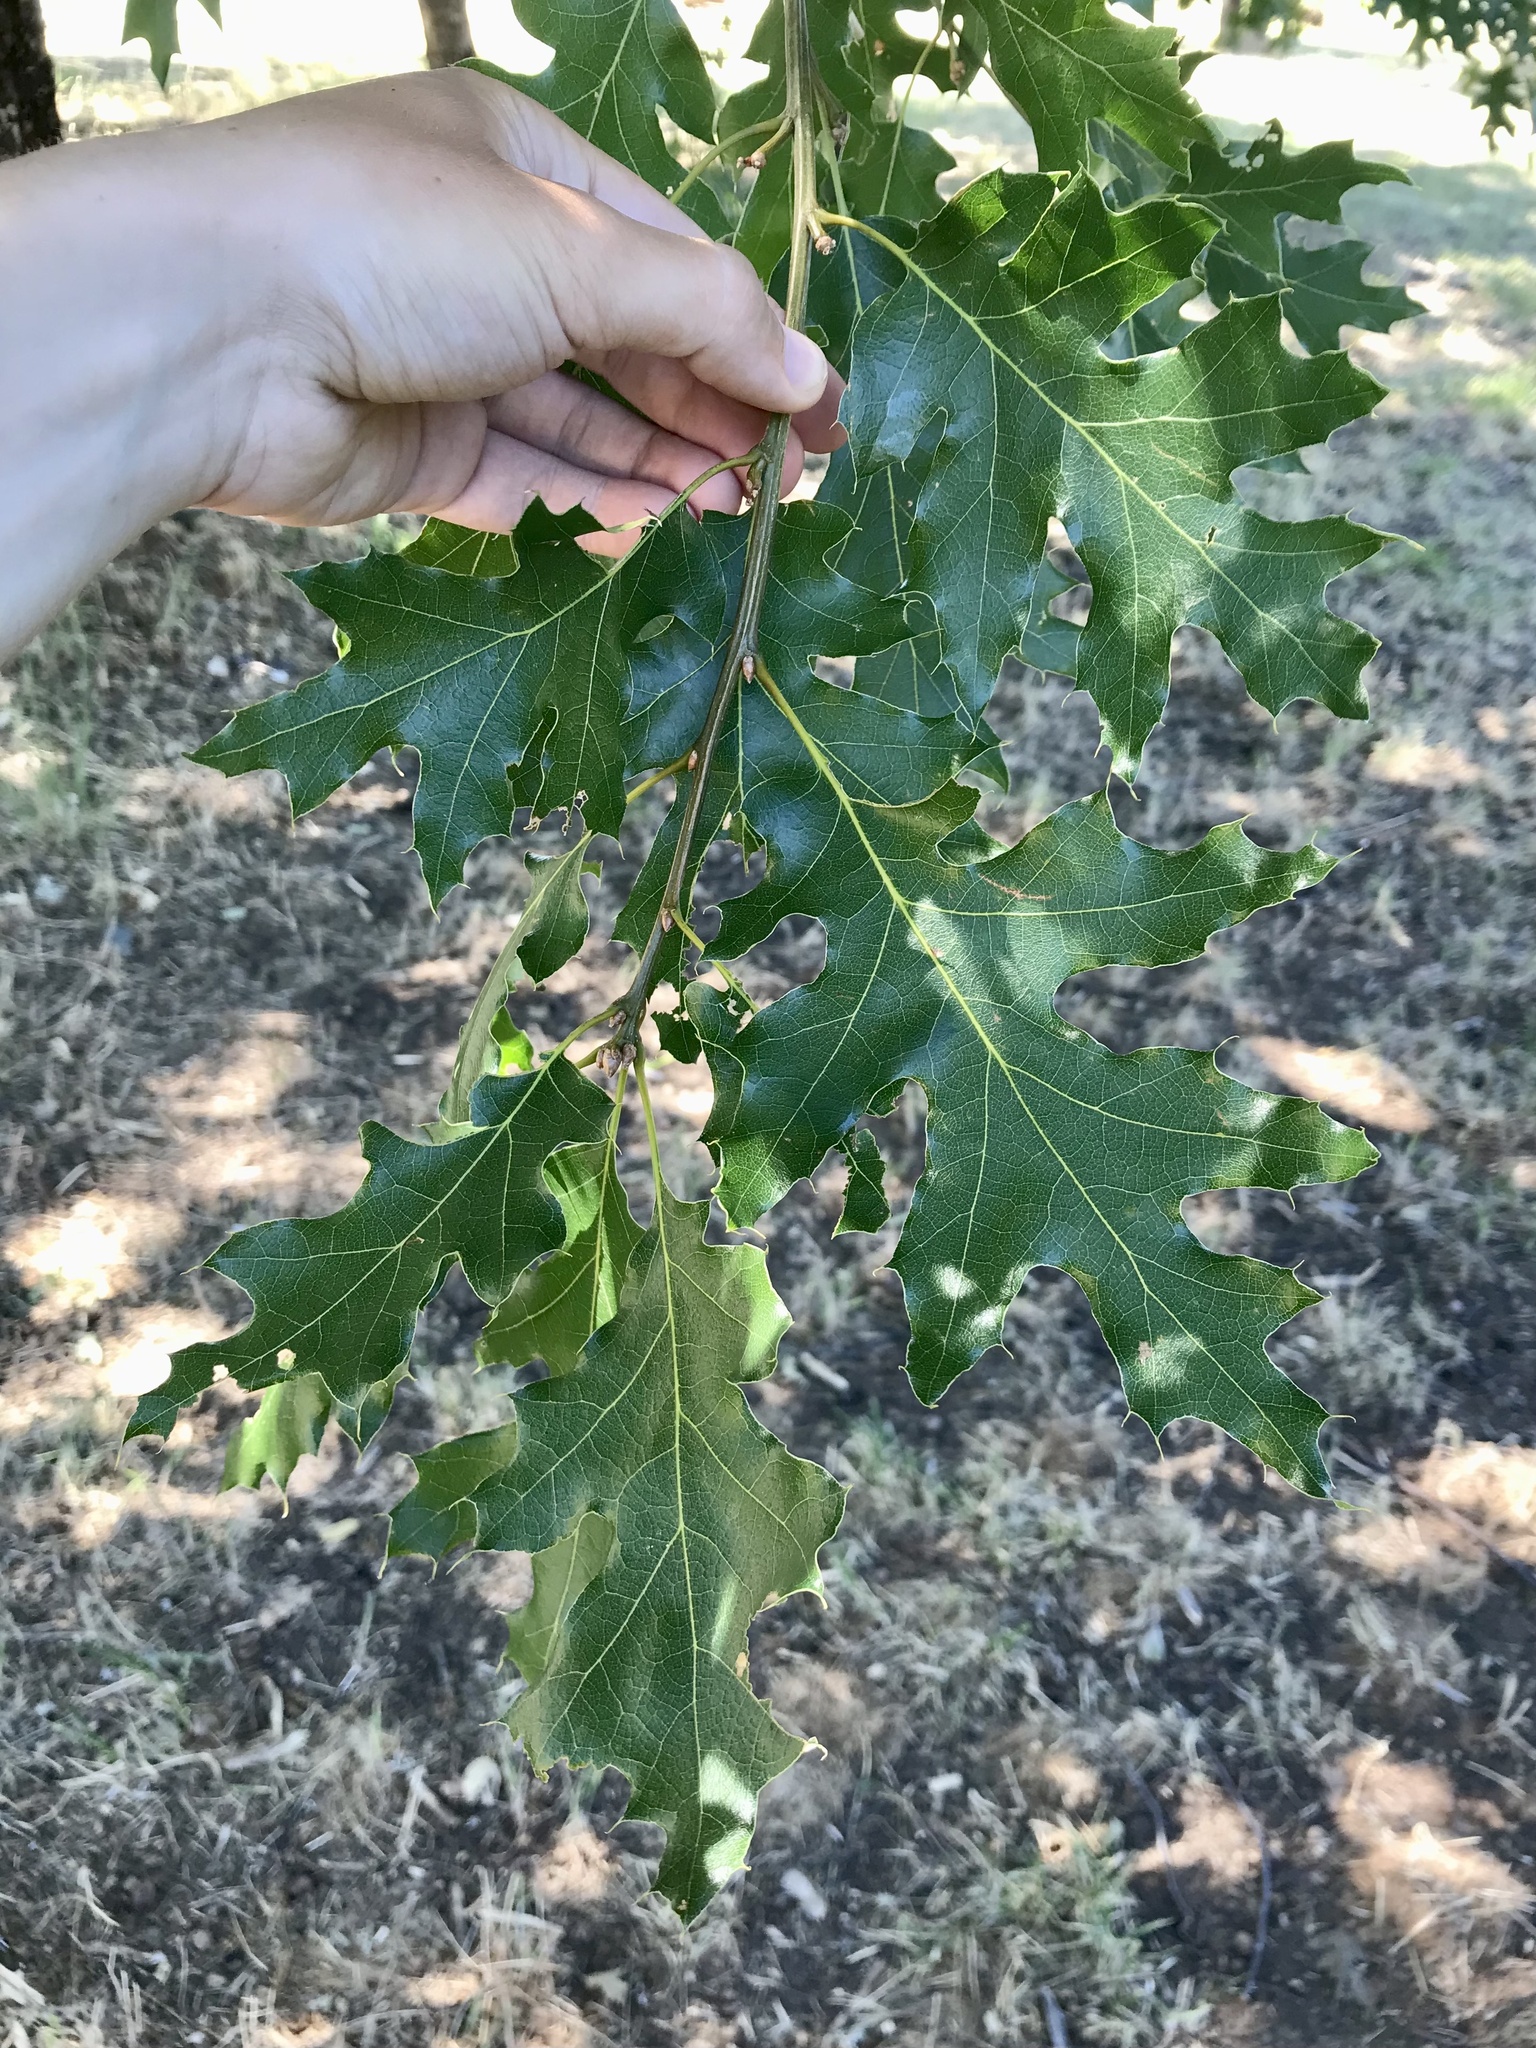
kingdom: Plantae
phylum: Tracheophyta
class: Magnoliopsida
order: Fagales
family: Fagaceae
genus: Quercus
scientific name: Quercus kelloggii
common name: California black oak
